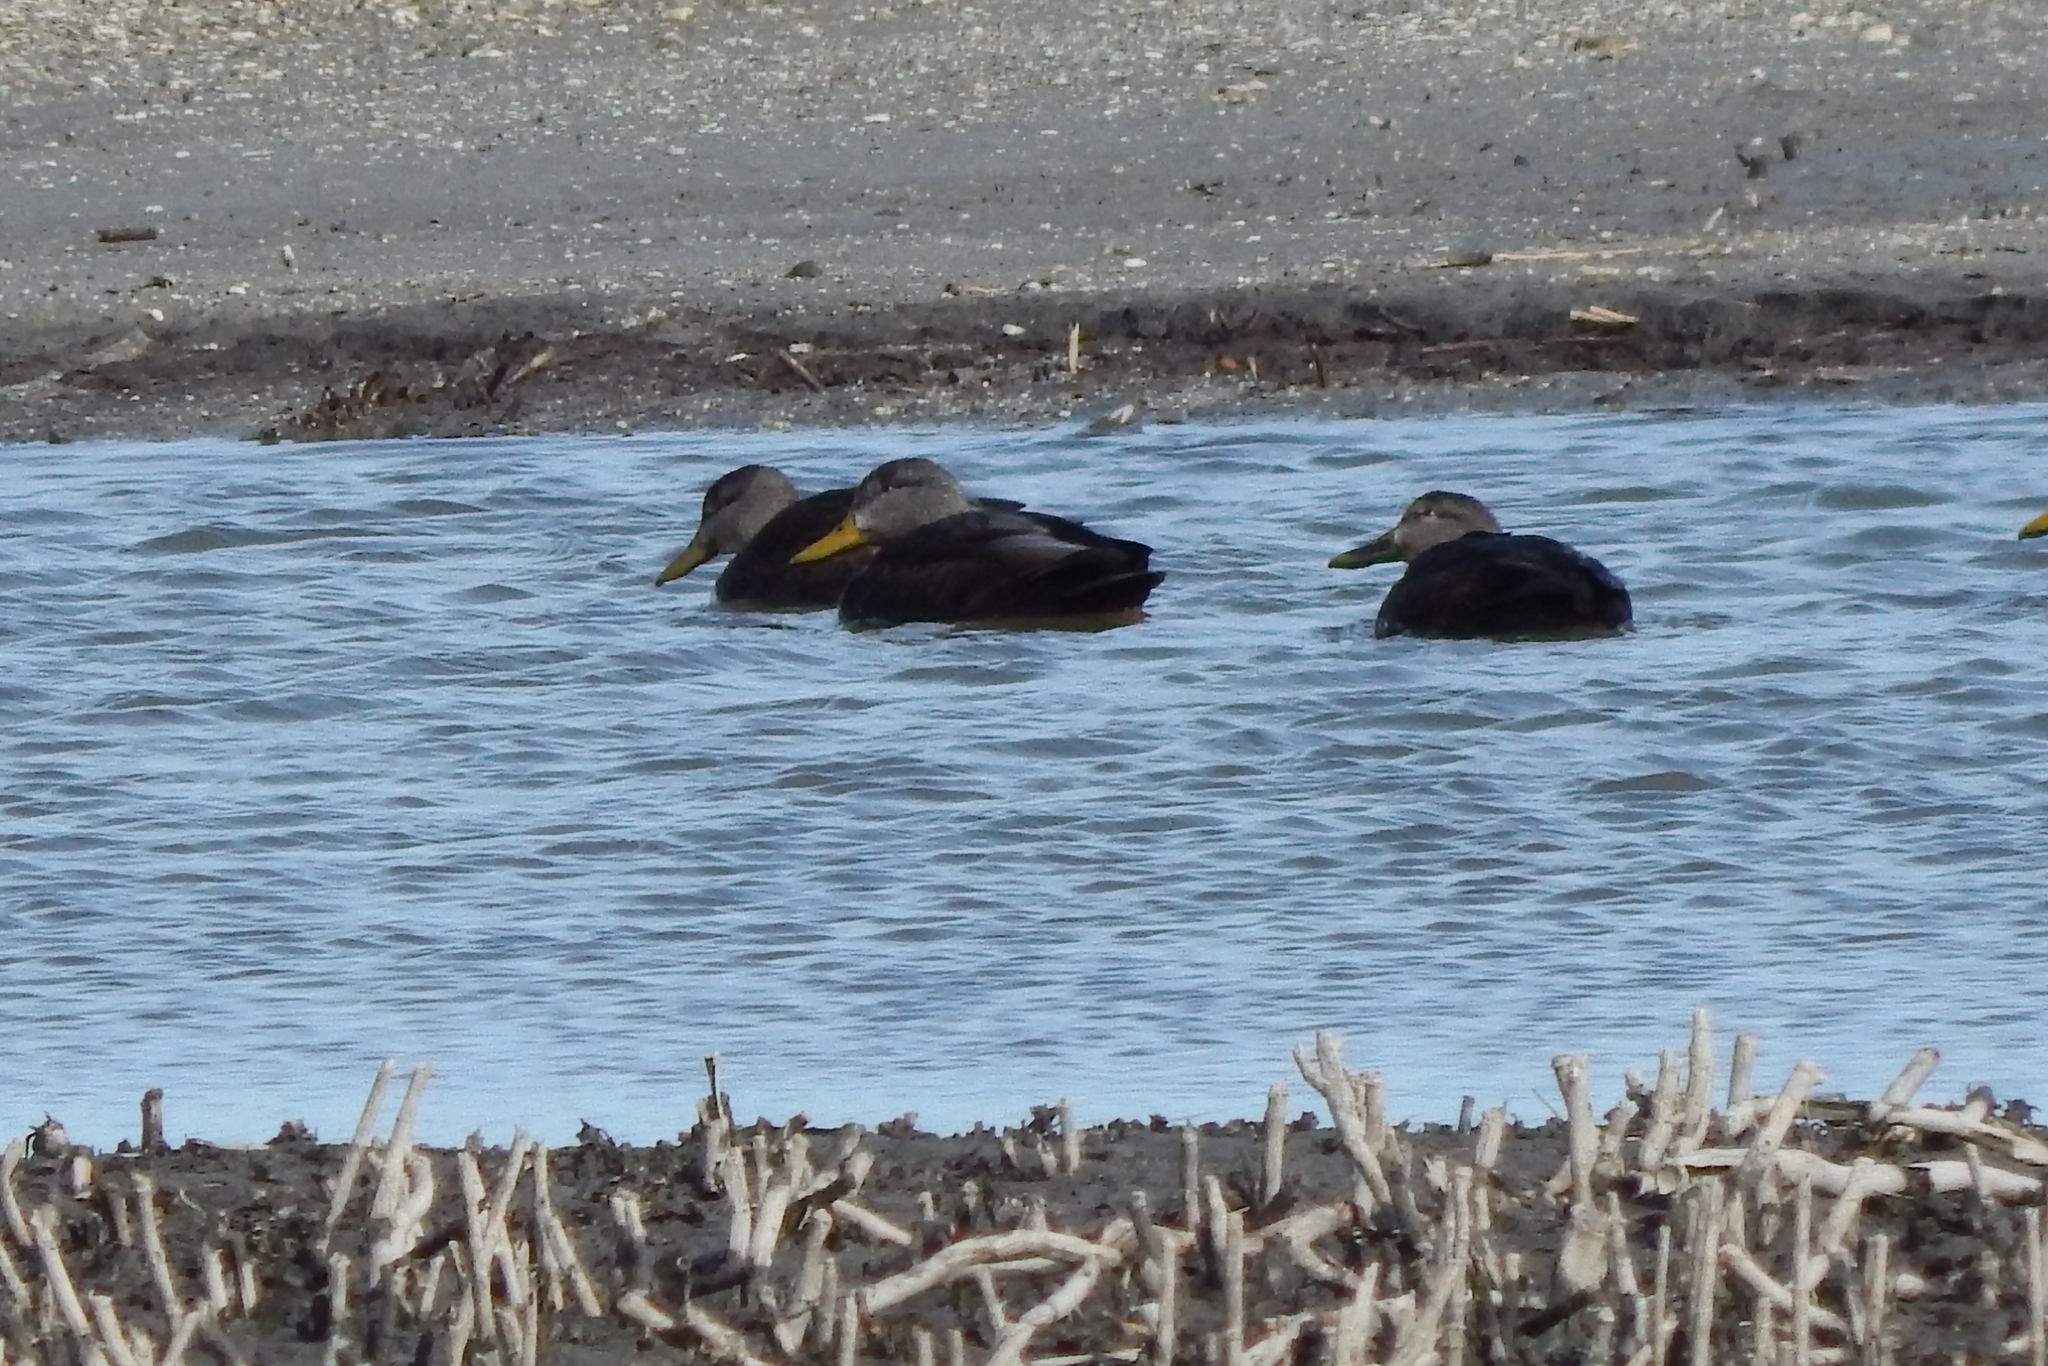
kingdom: Animalia
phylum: Chordata
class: Aves
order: Anseriformes
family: Anatidae
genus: Anas
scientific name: Anas rubripes
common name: American black duck
